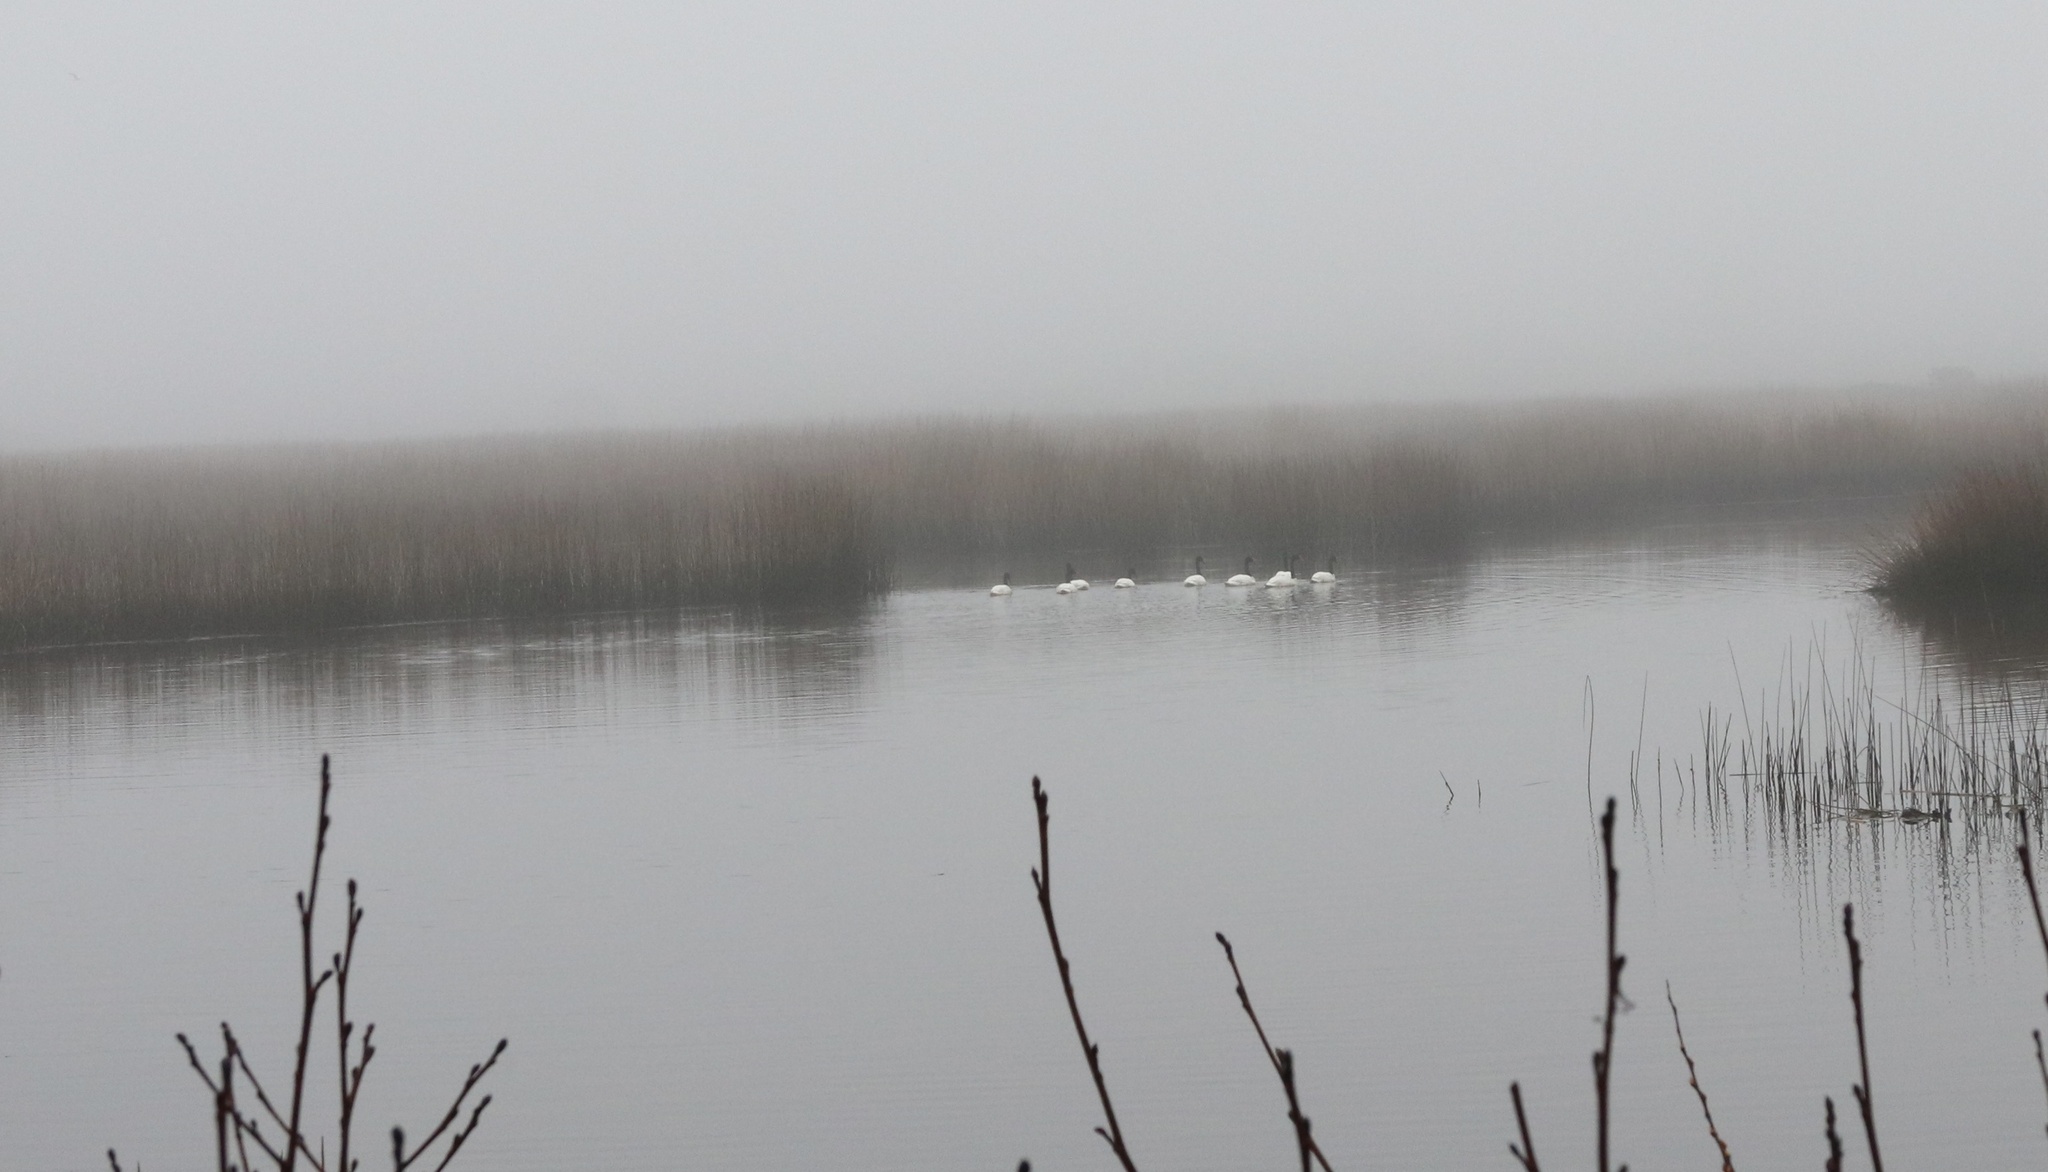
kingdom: Animalia
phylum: Chordata
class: Aves
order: Anseriformes
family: Anatidae
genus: Cygnus
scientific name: Cygnus melancoryphus
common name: Black-necked swan
